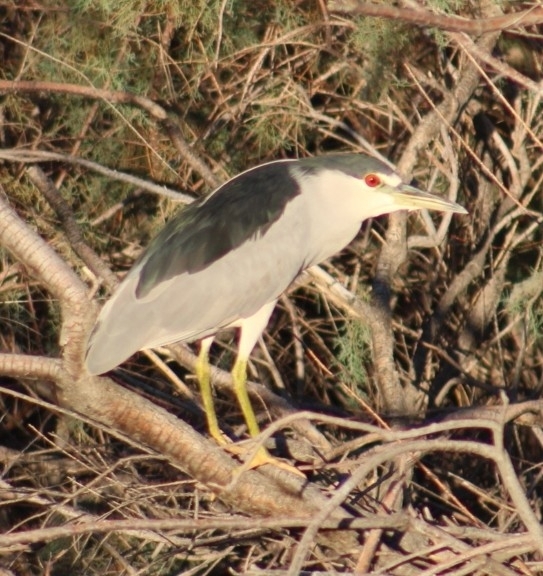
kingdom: Animalia
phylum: Chordata
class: Aves
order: Pelecaniformes
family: Ardeidae
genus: Nycticorax
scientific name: Nycticorax nycticorax
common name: Black-crowned night heron
